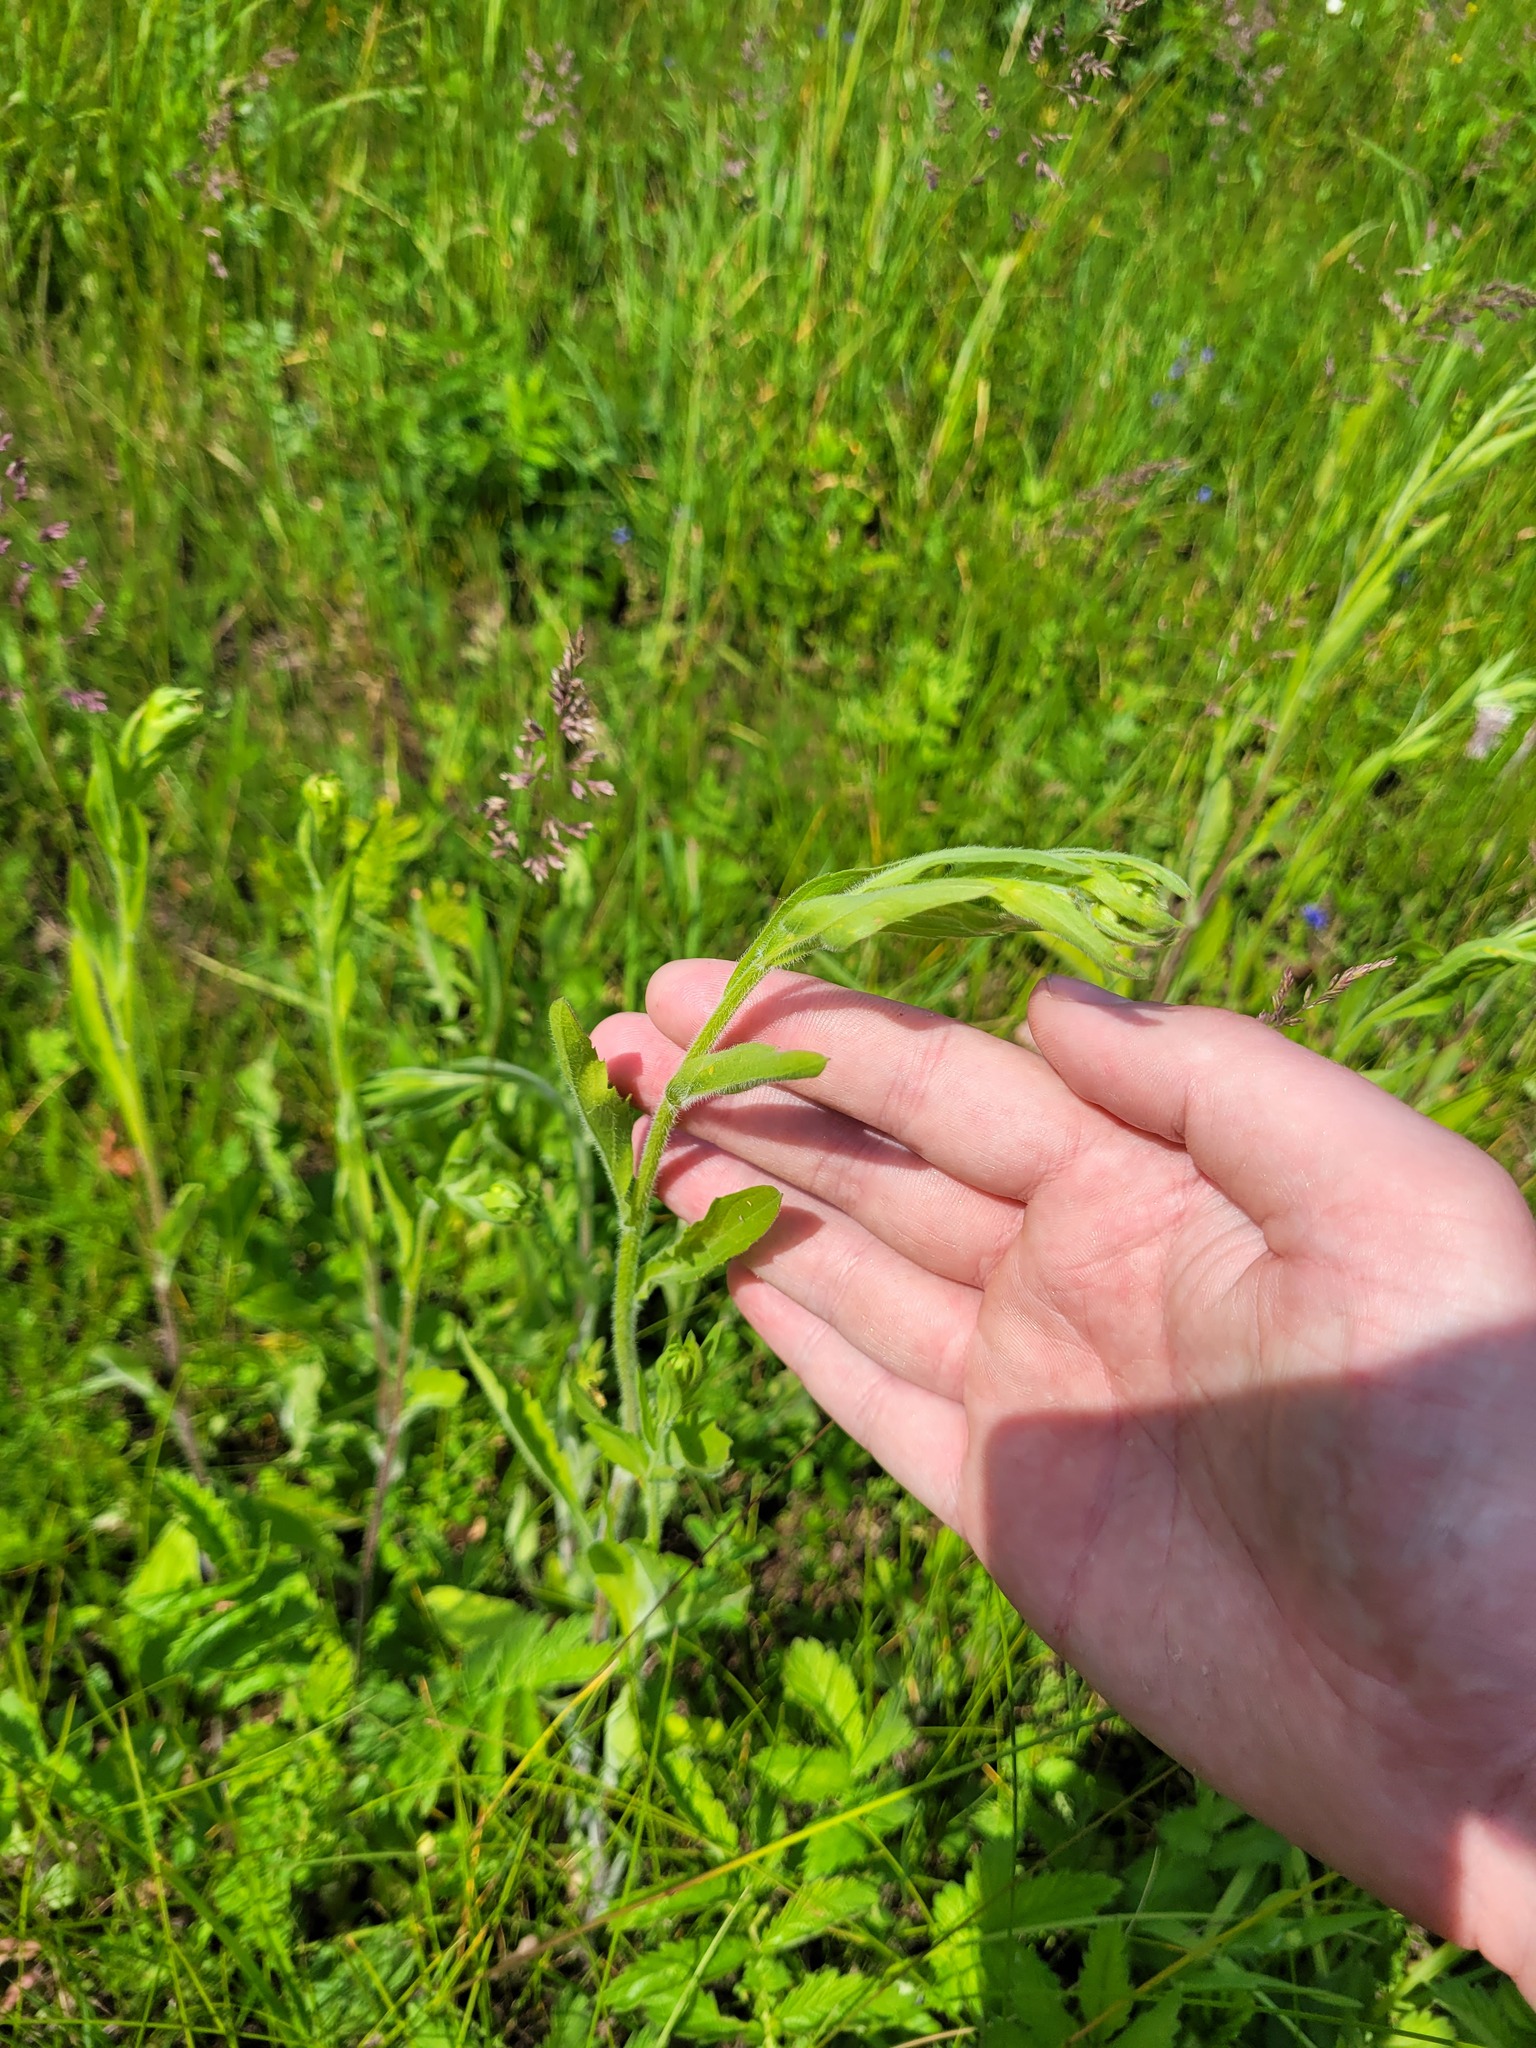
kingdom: Plantae
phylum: Tracheophyta
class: Magnoliopsida
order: Asterales
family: Asteraceae
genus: Erigeron
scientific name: Erigeron annuus
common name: Tall fleabane
